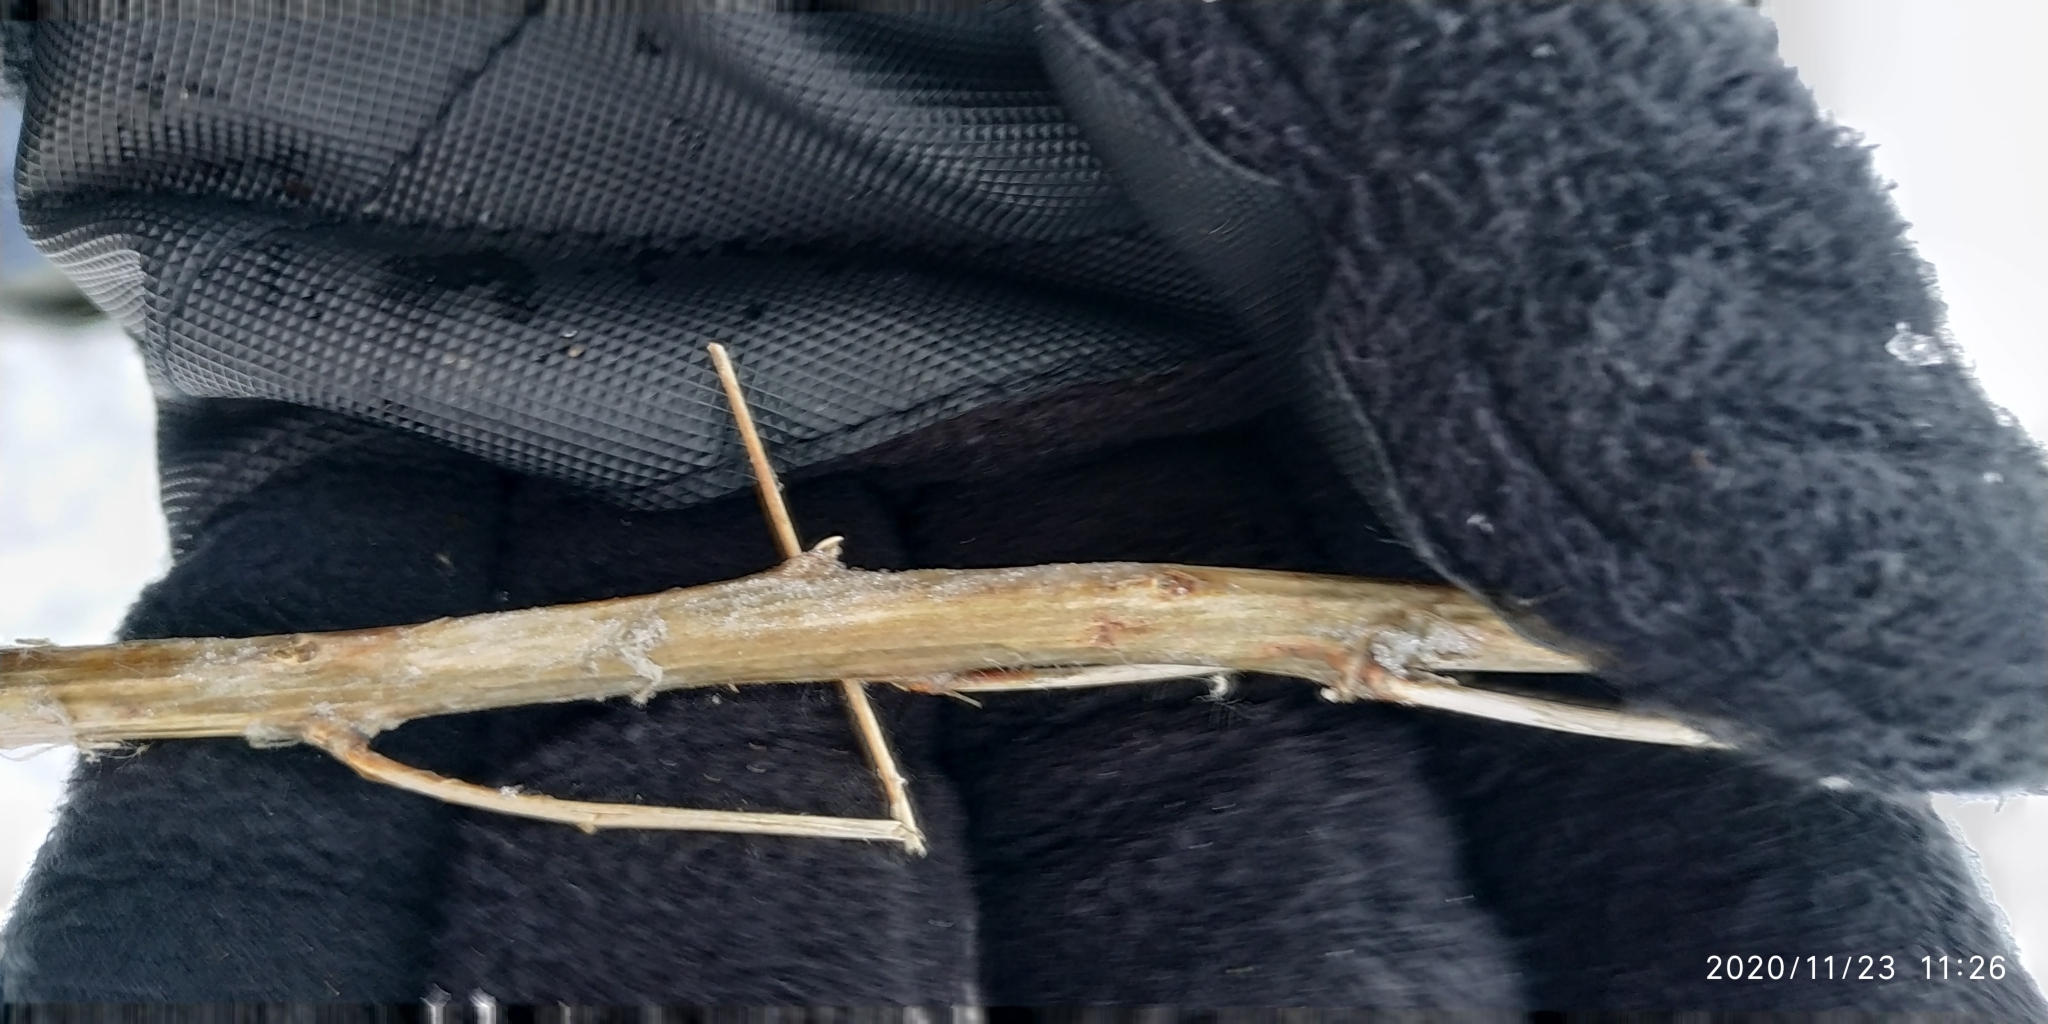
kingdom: Plantae
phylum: Tracheophyta
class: Magnoliopsida
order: Brassicales
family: Brassicaceae
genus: Descurainia
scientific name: Descurainia sophioides
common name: Northern tansy mustard
